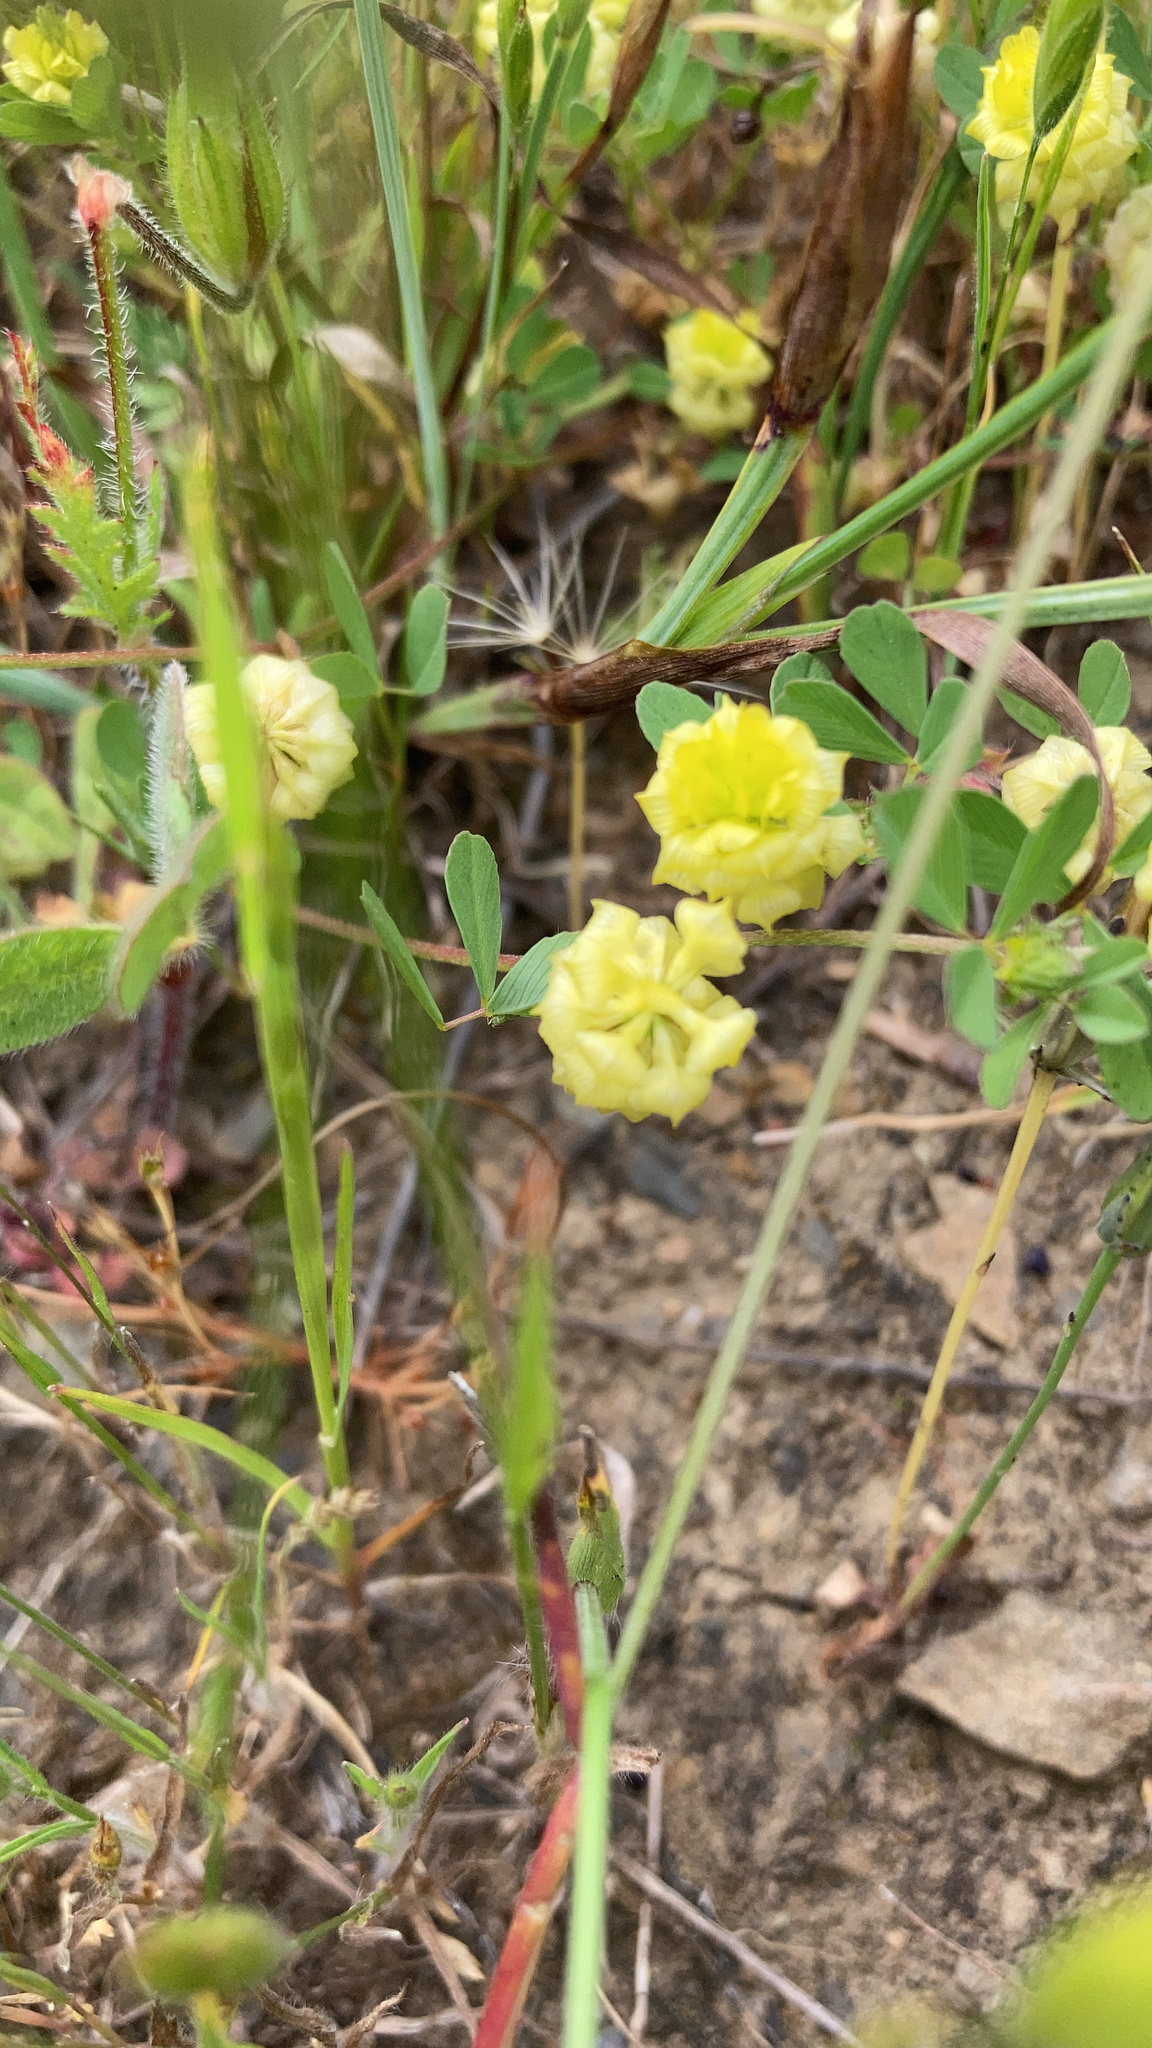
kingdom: Plantae
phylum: Tracheophyta
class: Magnoliopsida
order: Fabales
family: Fabaceae
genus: Trifolium
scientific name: Trifolium campestre
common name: Field clover
